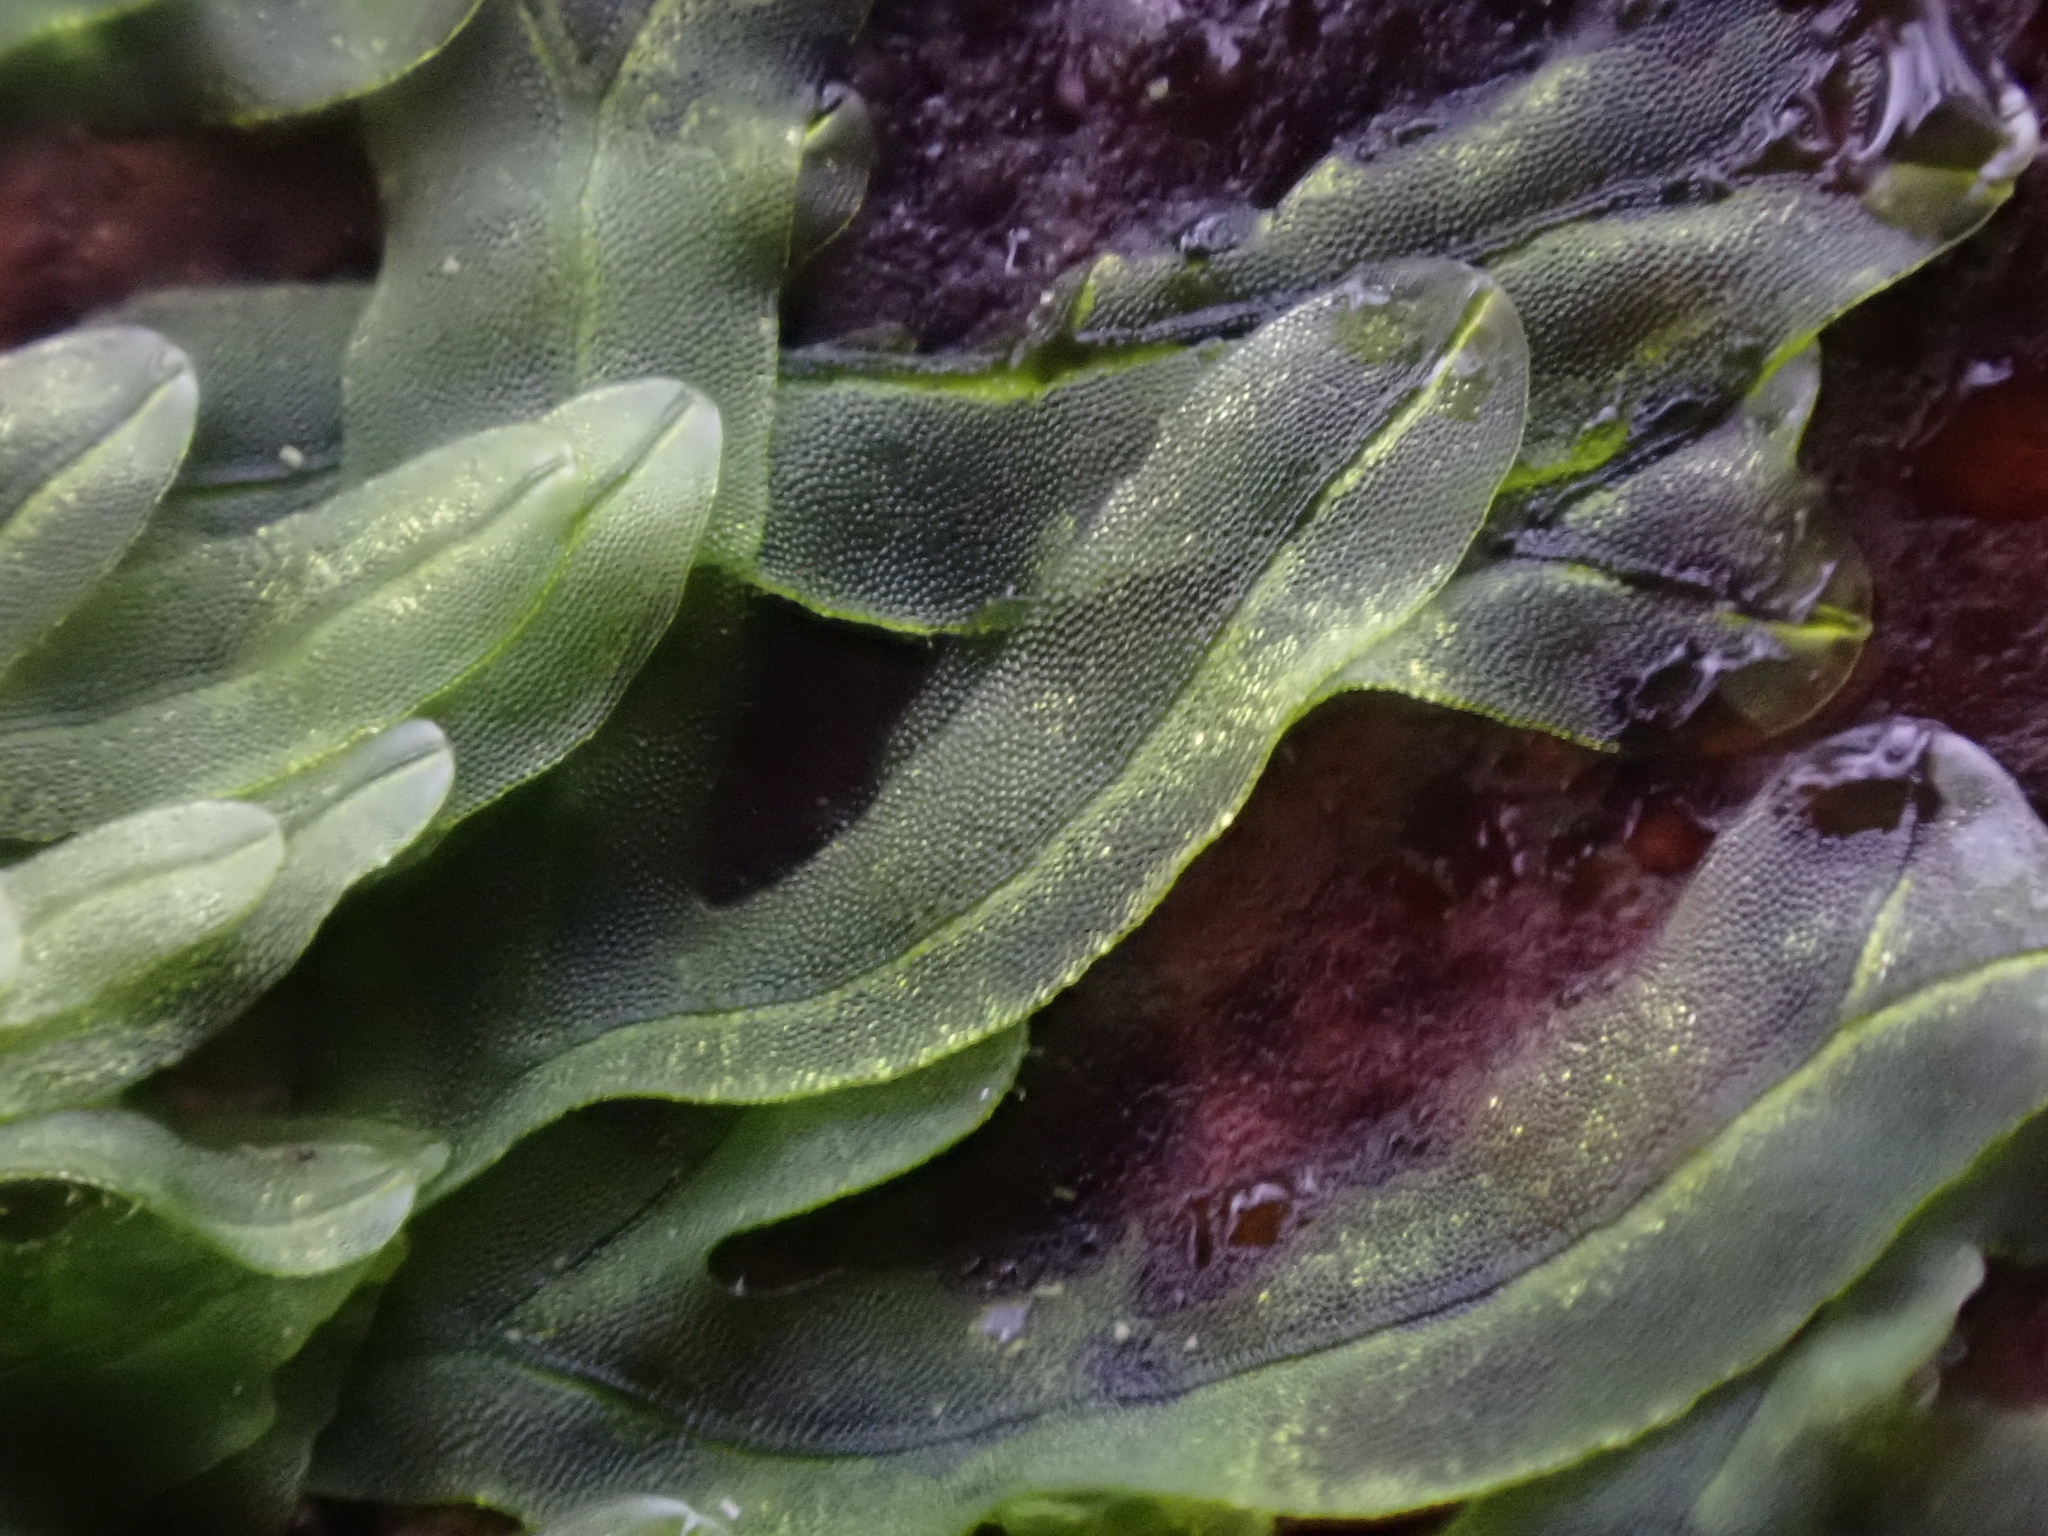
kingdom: Plantae
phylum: Marchantiophyta
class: Jungermanniopsida
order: Metzgeriales
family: Metzgeriaceae
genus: Metzgeria
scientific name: Metzgeria furcata
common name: Forked veilwort
